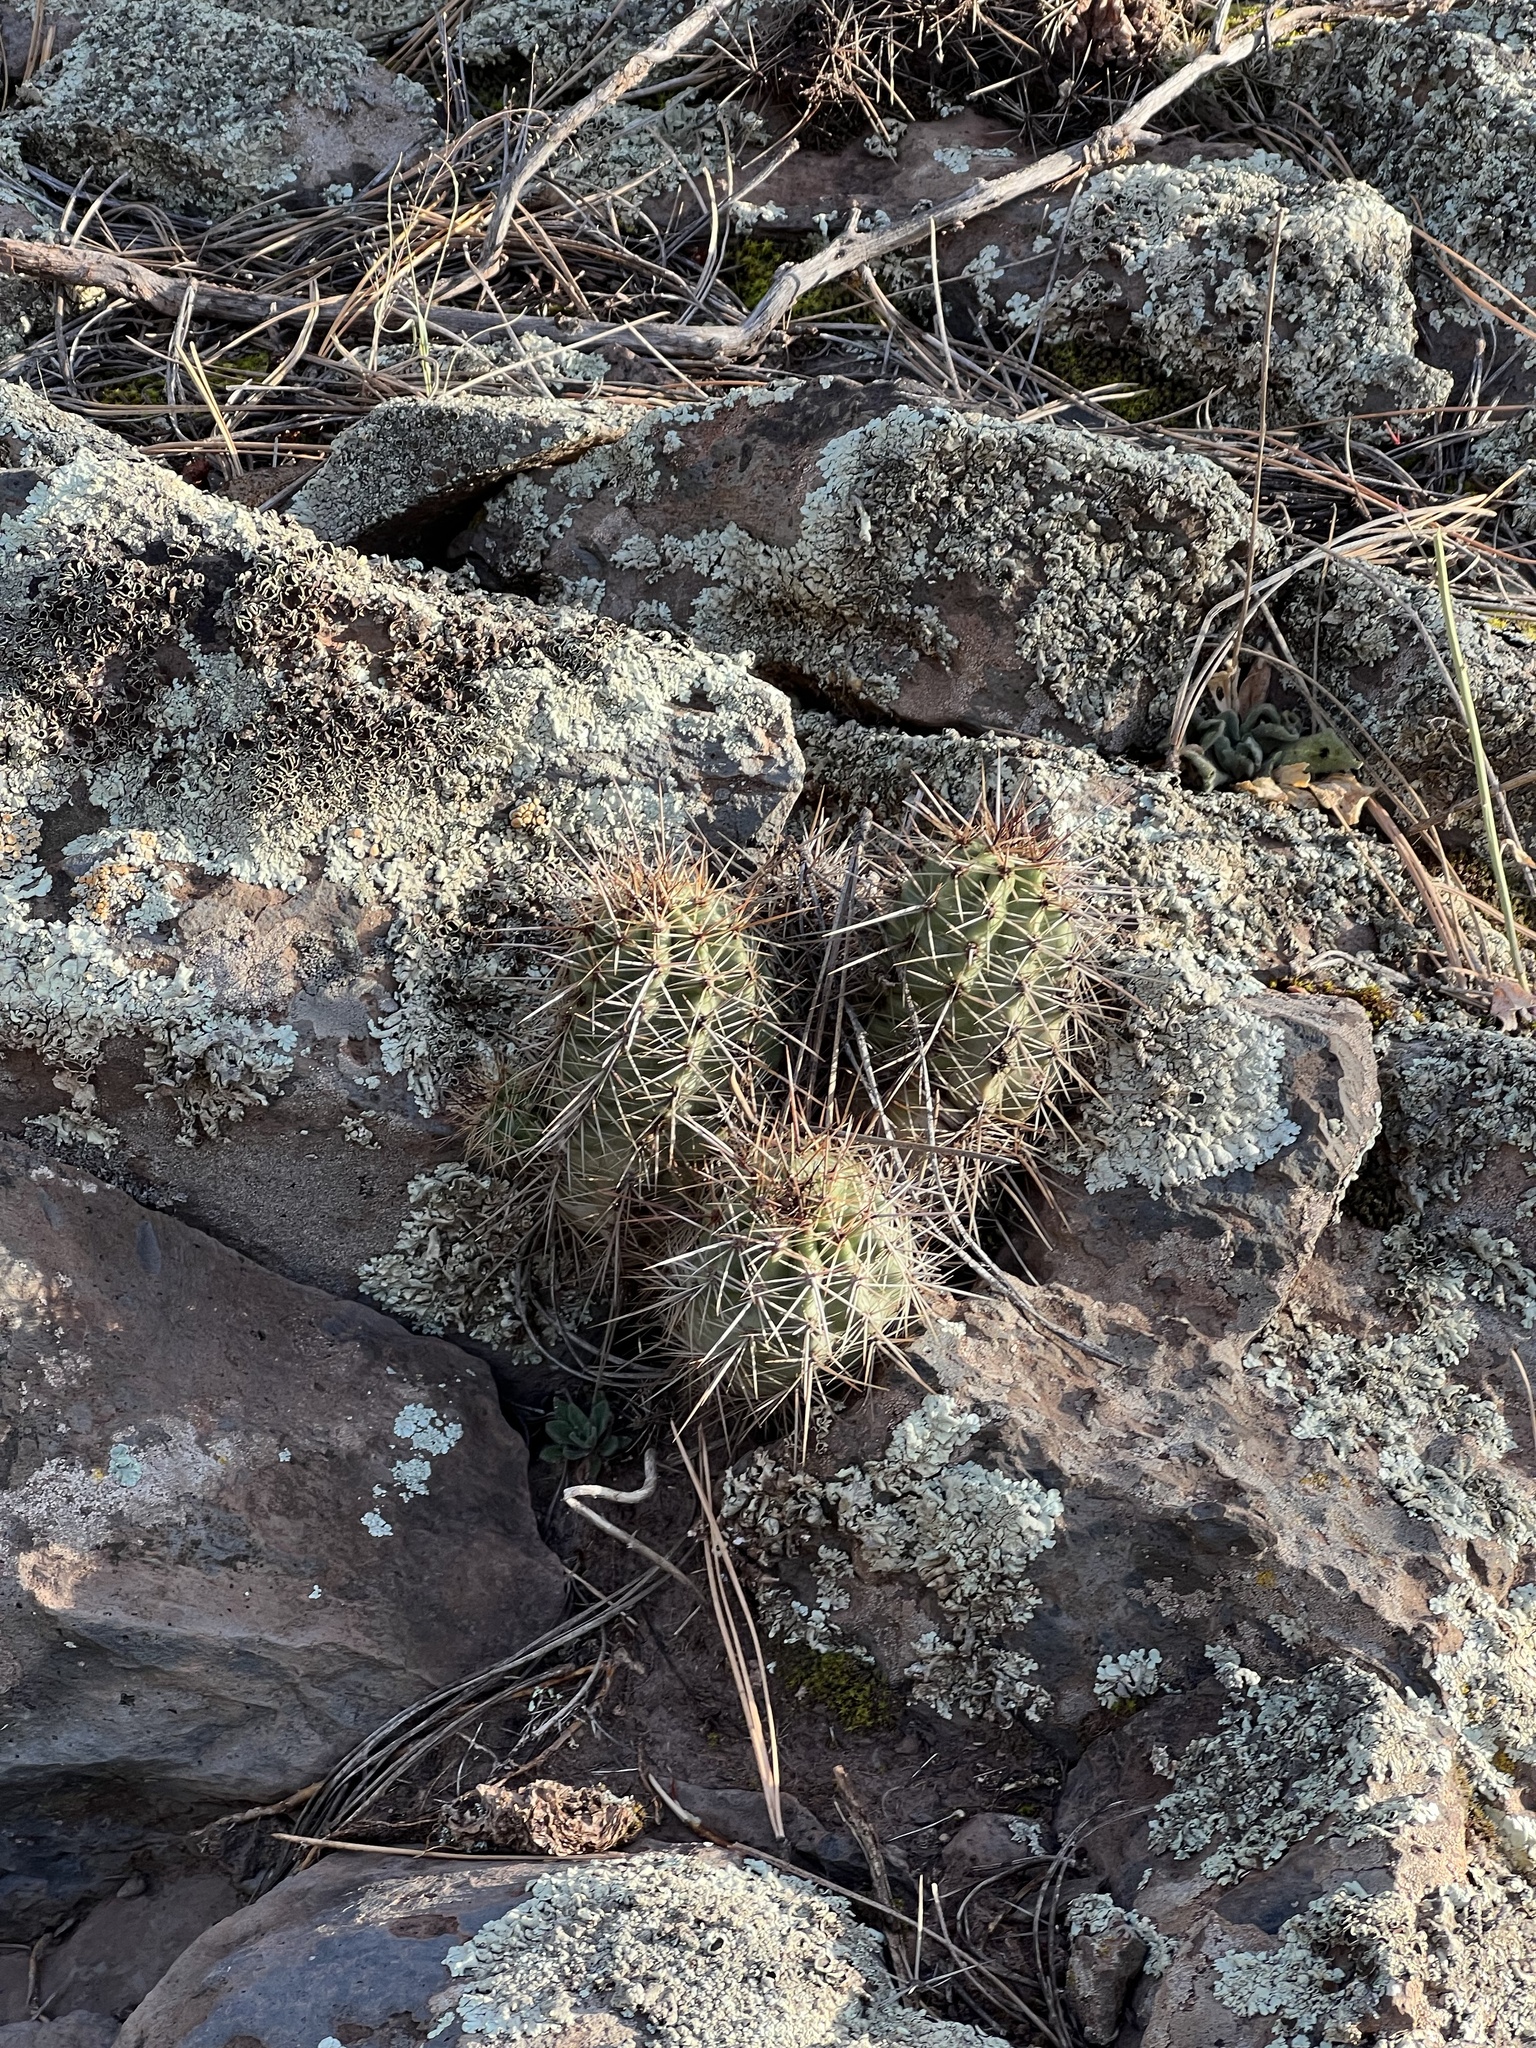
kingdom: Plantae
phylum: Tracheophyta
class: Magnoliopsida
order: Caryophyllales
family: Cactaceae
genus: Echinocereus
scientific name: Echinocereus bakeri
